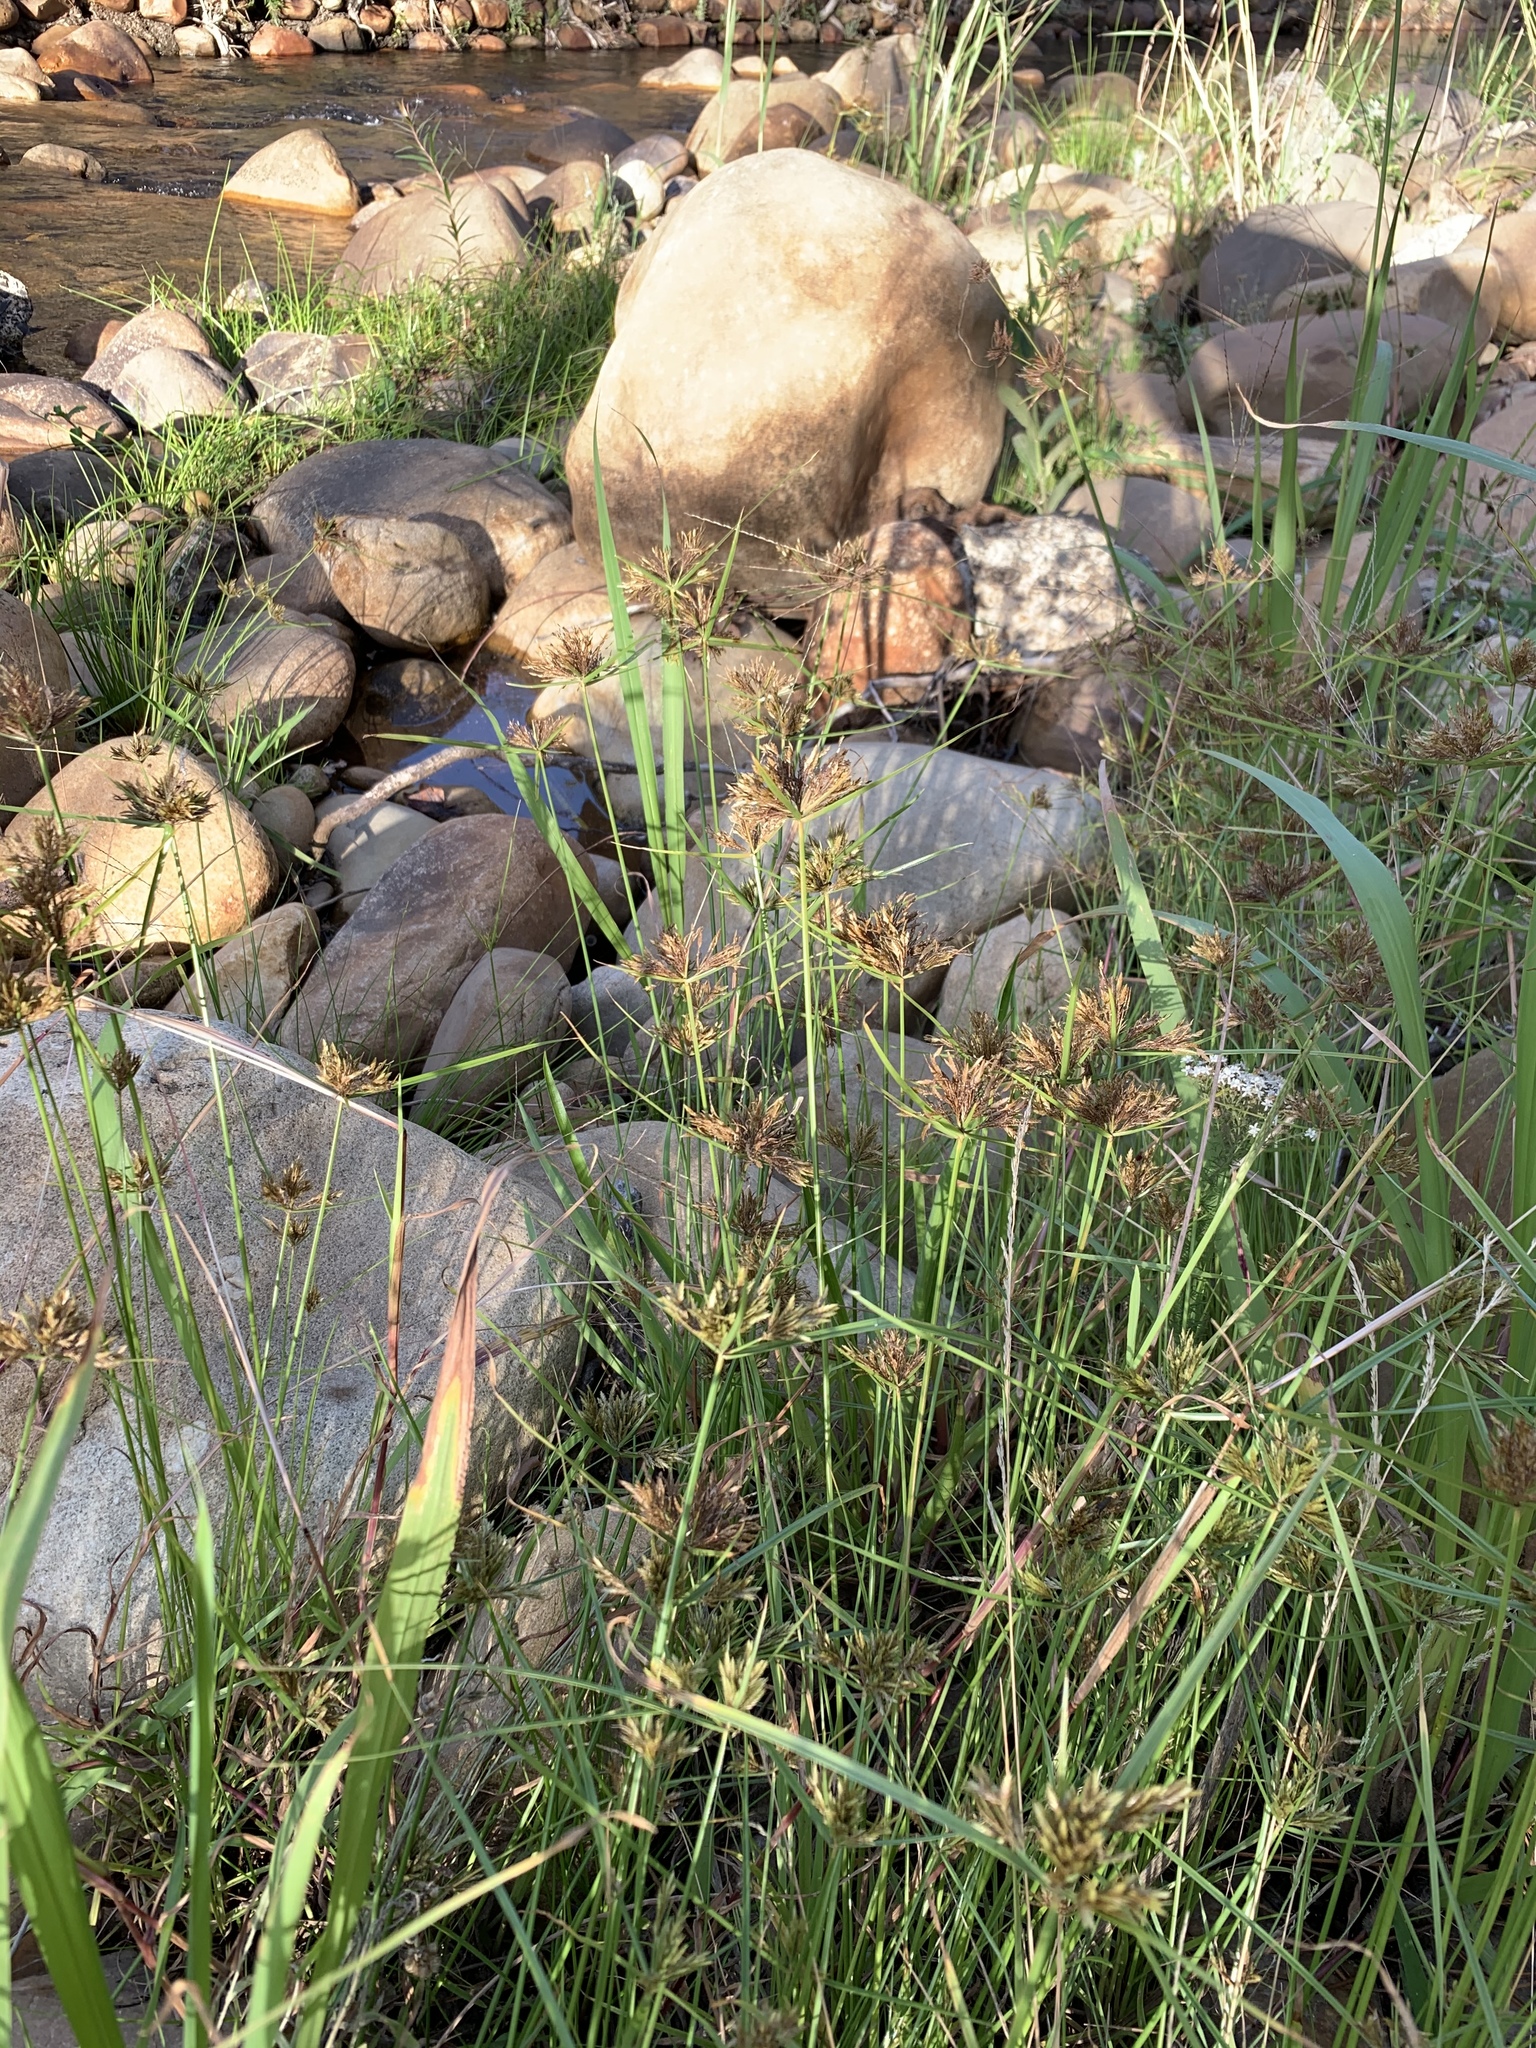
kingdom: Plantae
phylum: Tracheophyta
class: Liliopsida
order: Poales
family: Cyperaceae
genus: Cyperus
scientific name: Cyperus polystachyos
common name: Bunchy flat sedge
